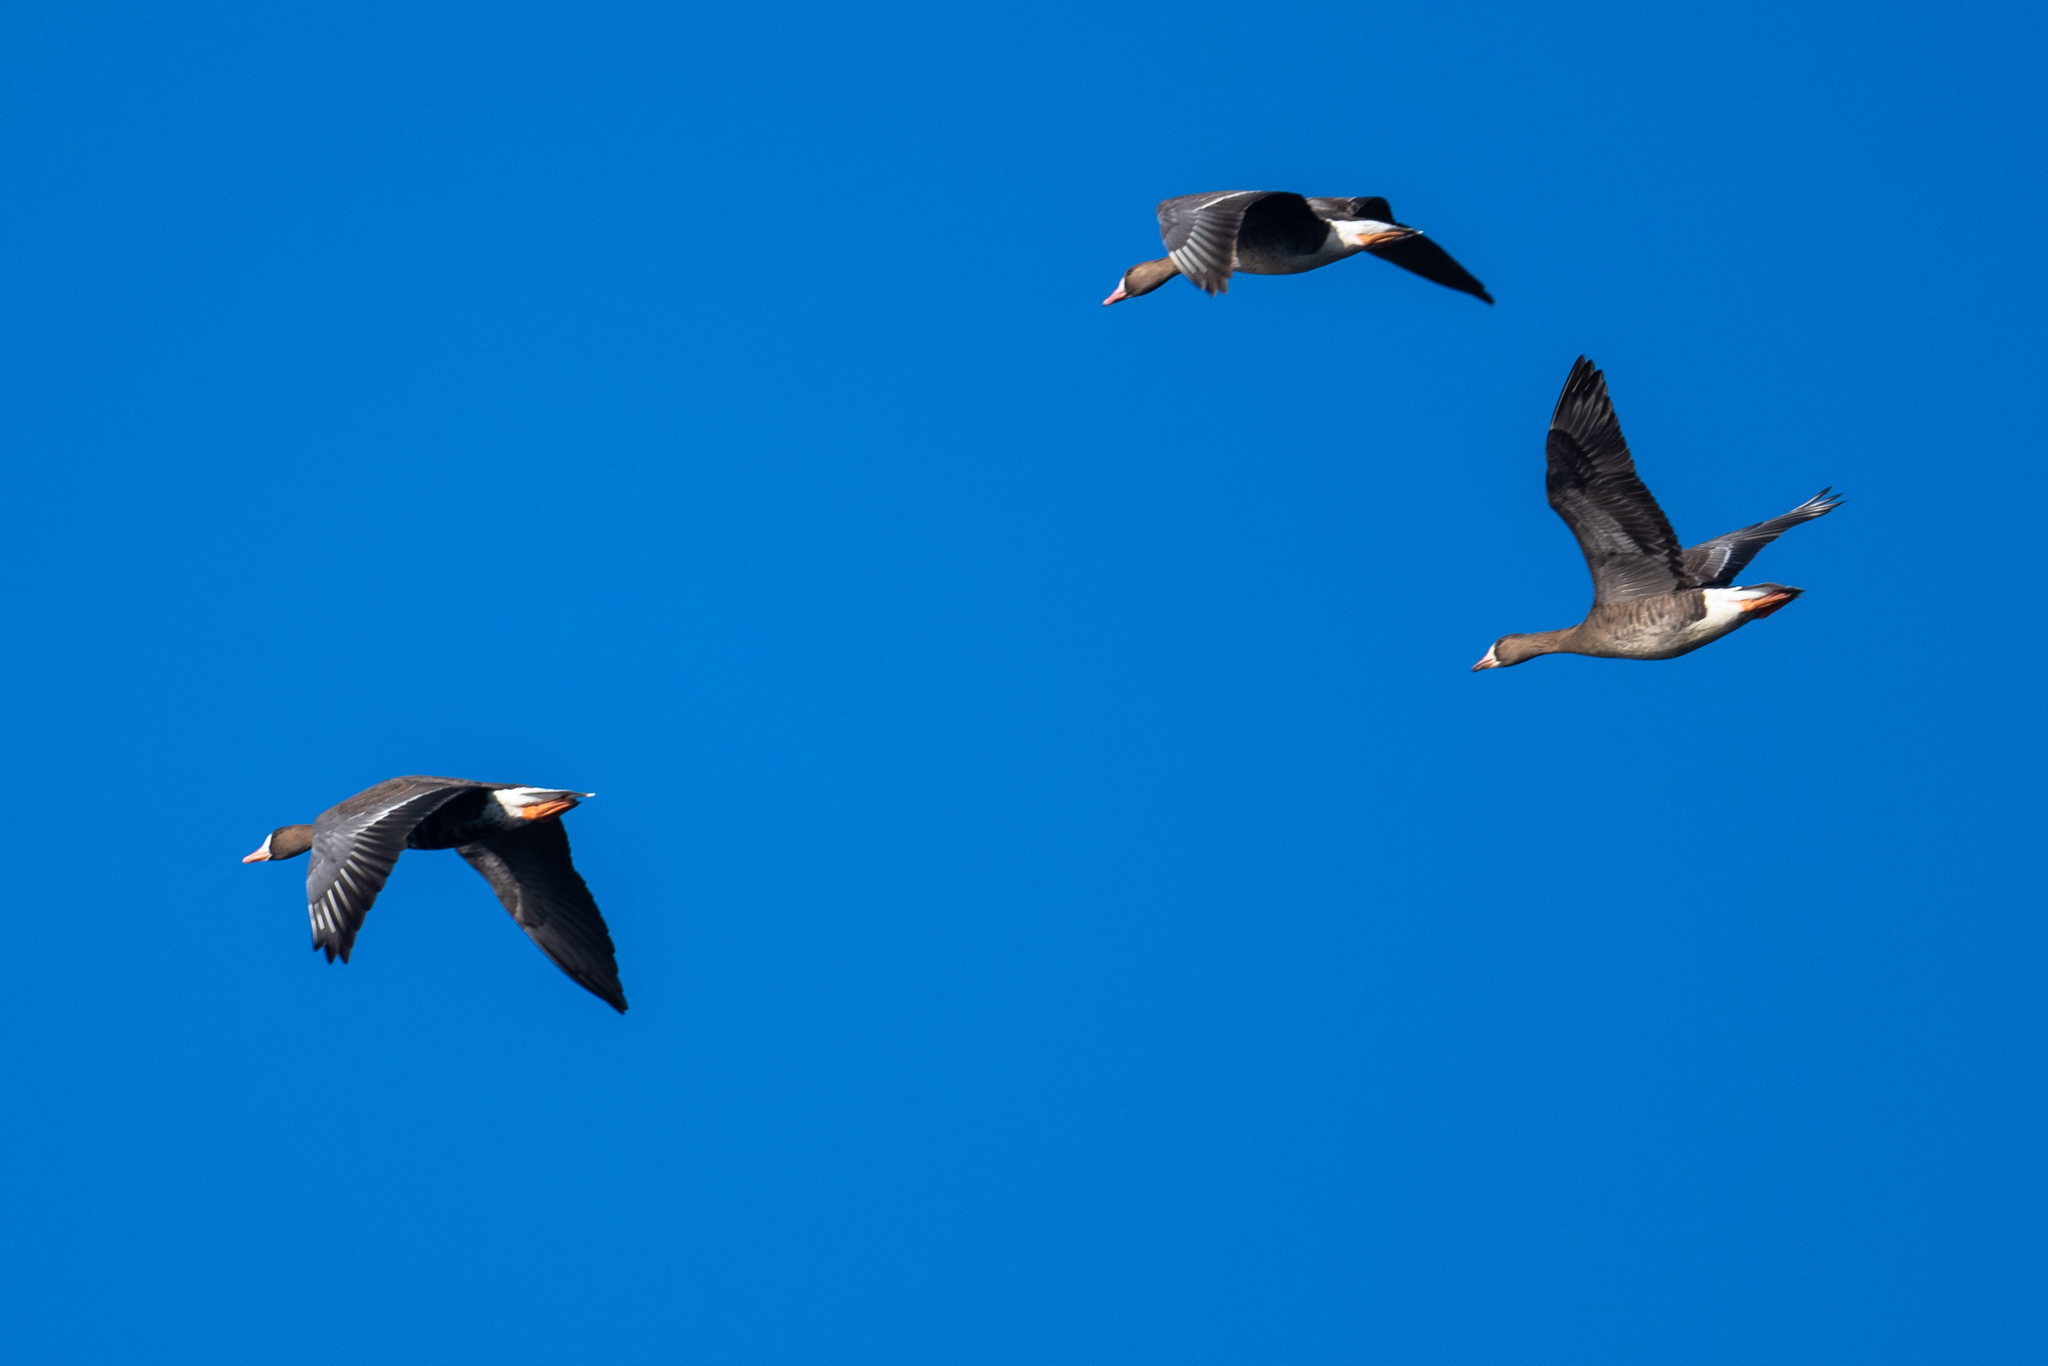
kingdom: Animalia
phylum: Chordata
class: Aves
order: Anseriformes
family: Anatidae
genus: Anser
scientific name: Anser albifrons
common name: Greater white-fronted goose
